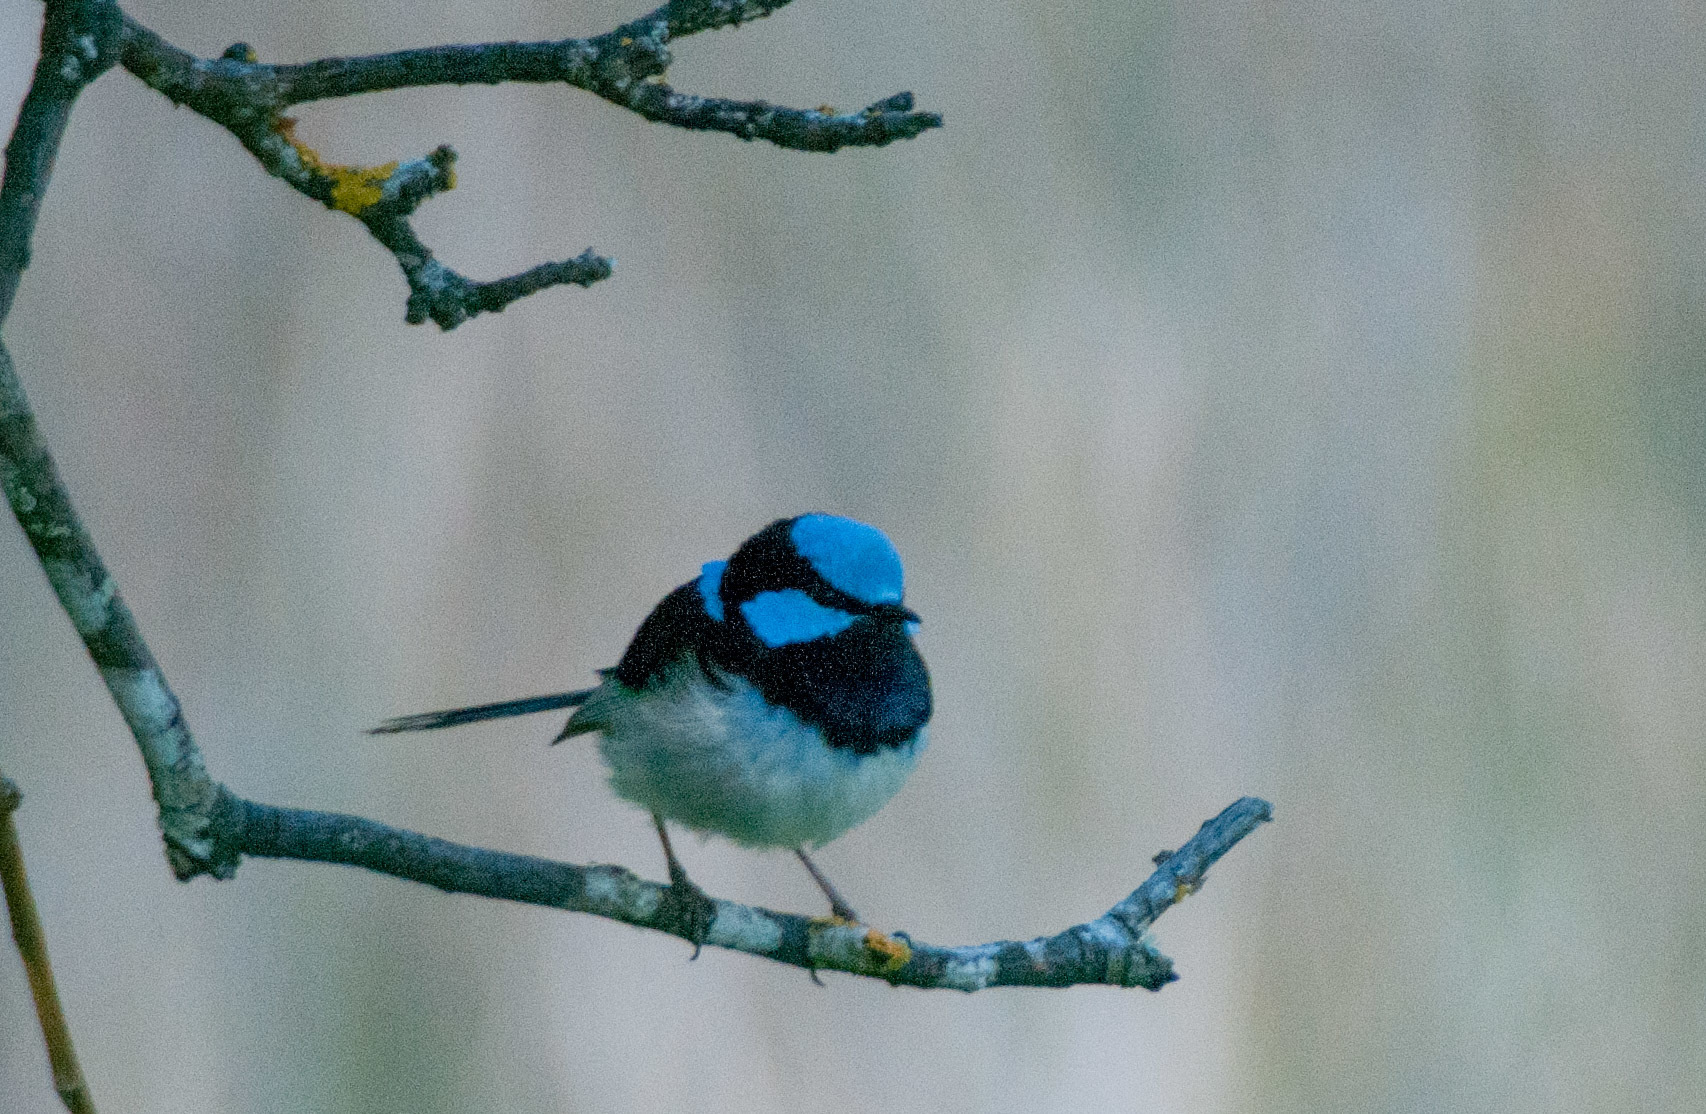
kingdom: Animalia
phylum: Chordata
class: Aves
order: Passeriformes
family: Maluridae
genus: Malurus
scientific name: Malurus cyaneus
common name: Superb fairywren
